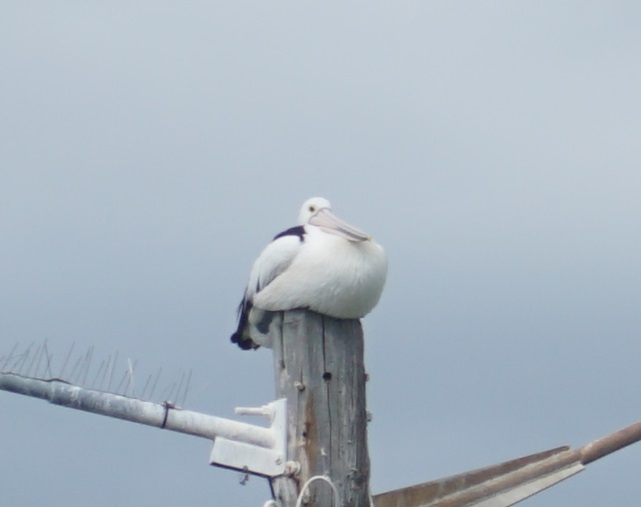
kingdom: Animalia
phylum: Chordata
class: Aves
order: Pelecaniformes
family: Pelecanidae
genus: Pelecanus
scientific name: Pelecanus conspicillatus
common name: Australian pelican
